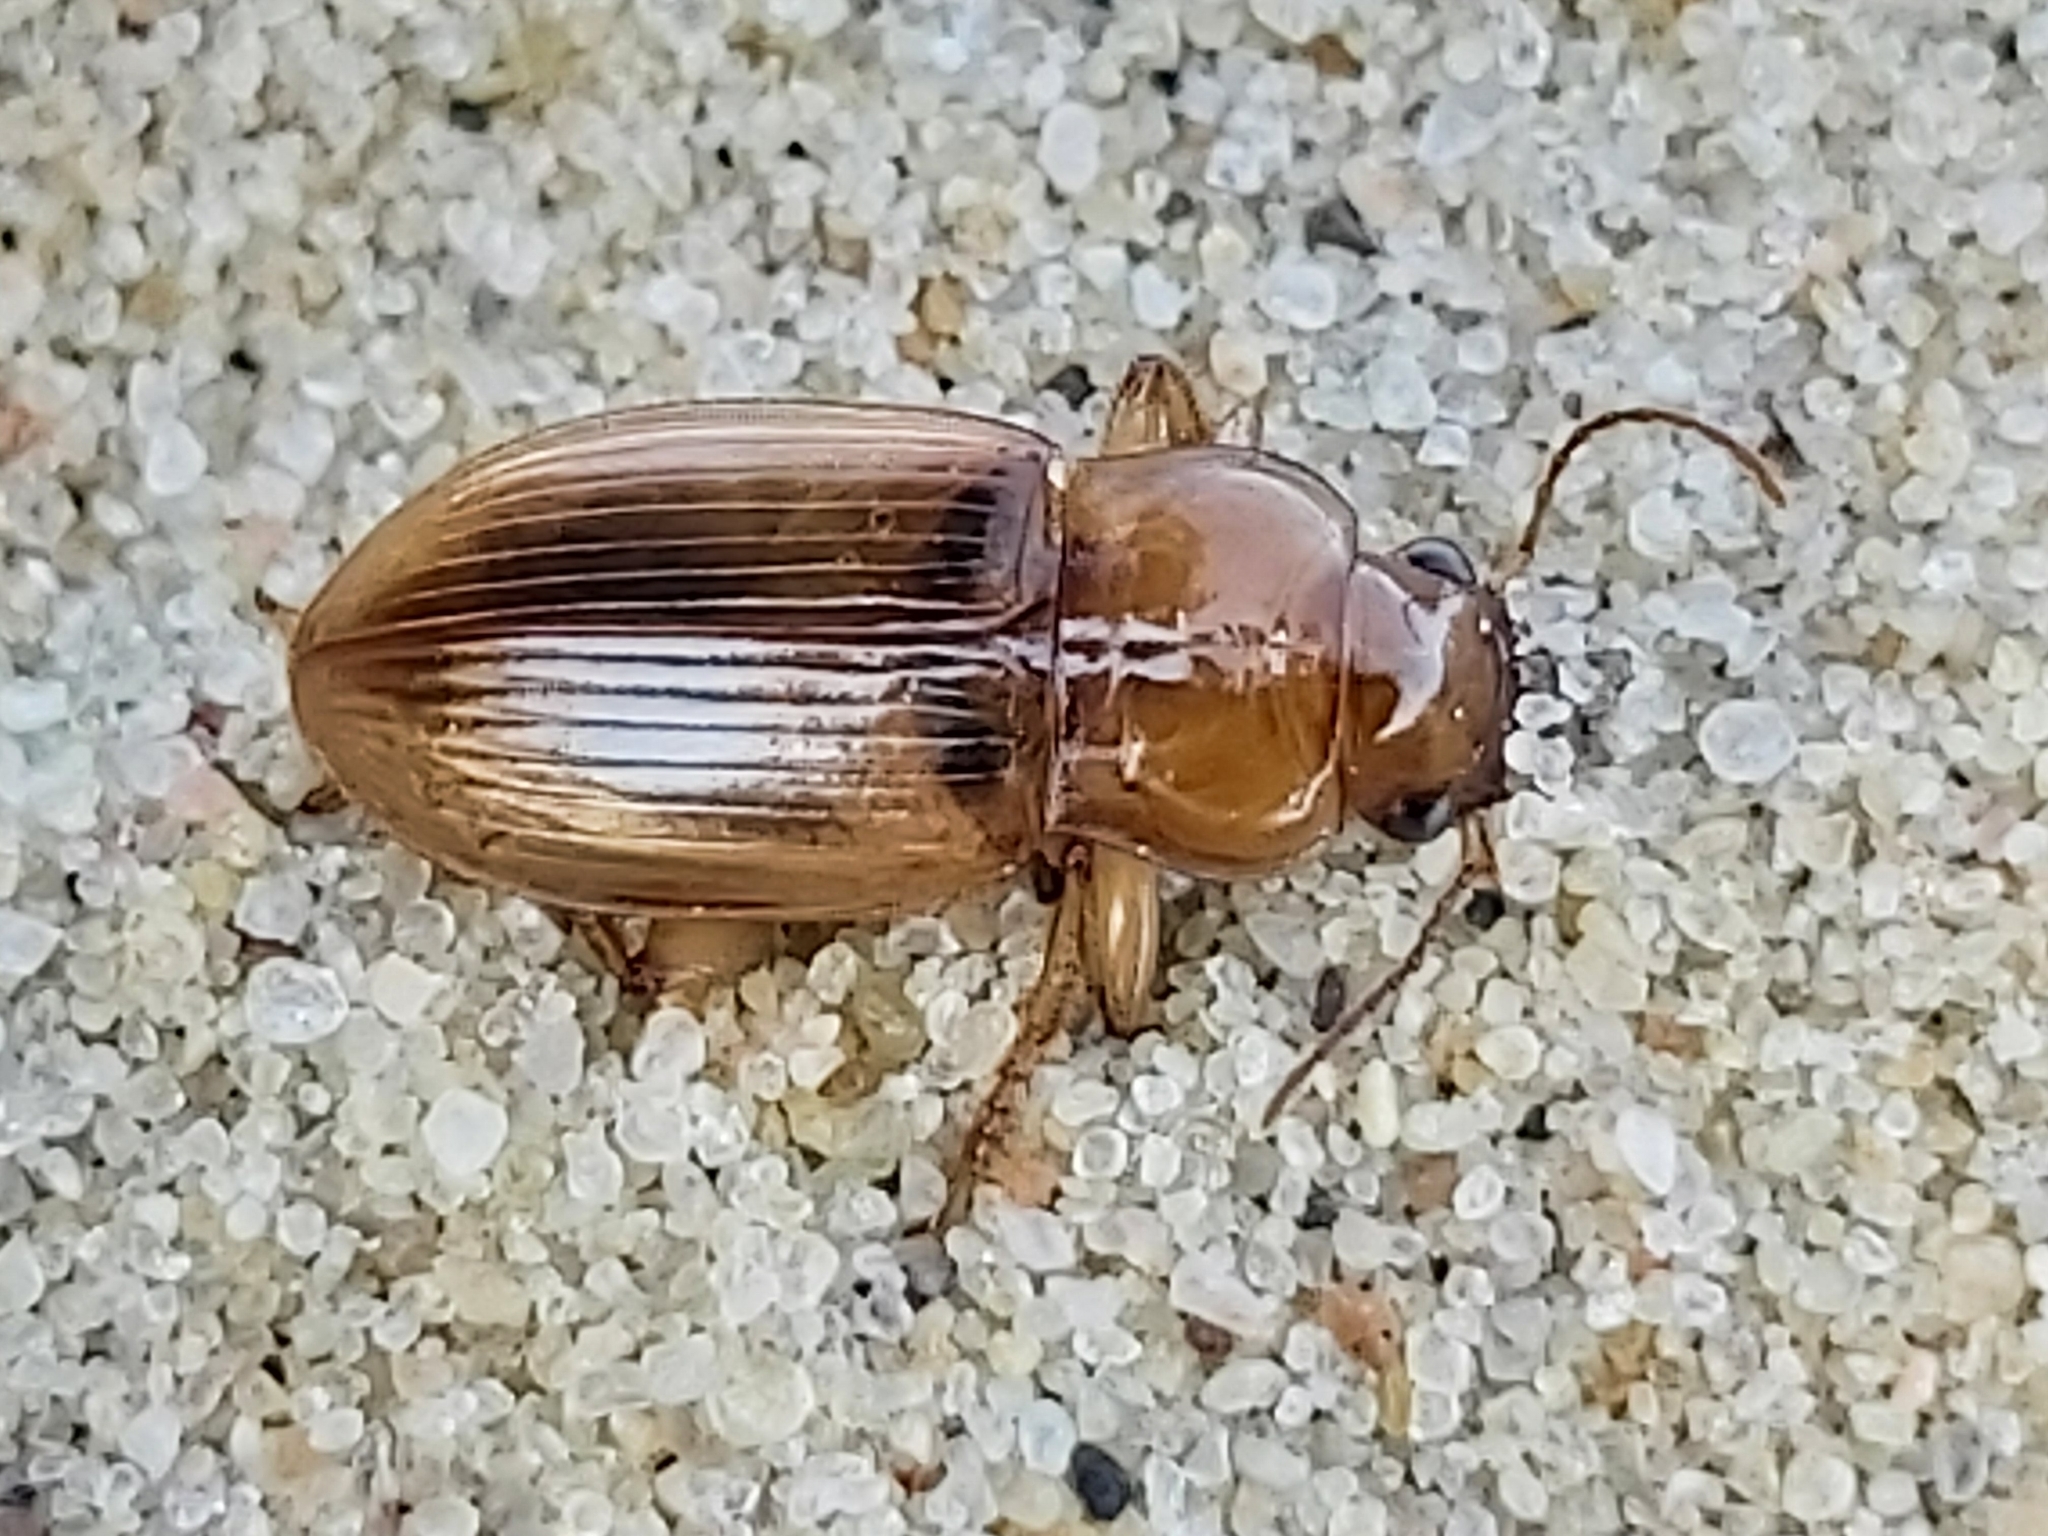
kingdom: Animalia
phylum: Arthropoda
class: Insecta
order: Coleoptera
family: Carabidae
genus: Harpalus
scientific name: Harpalus flavescens
